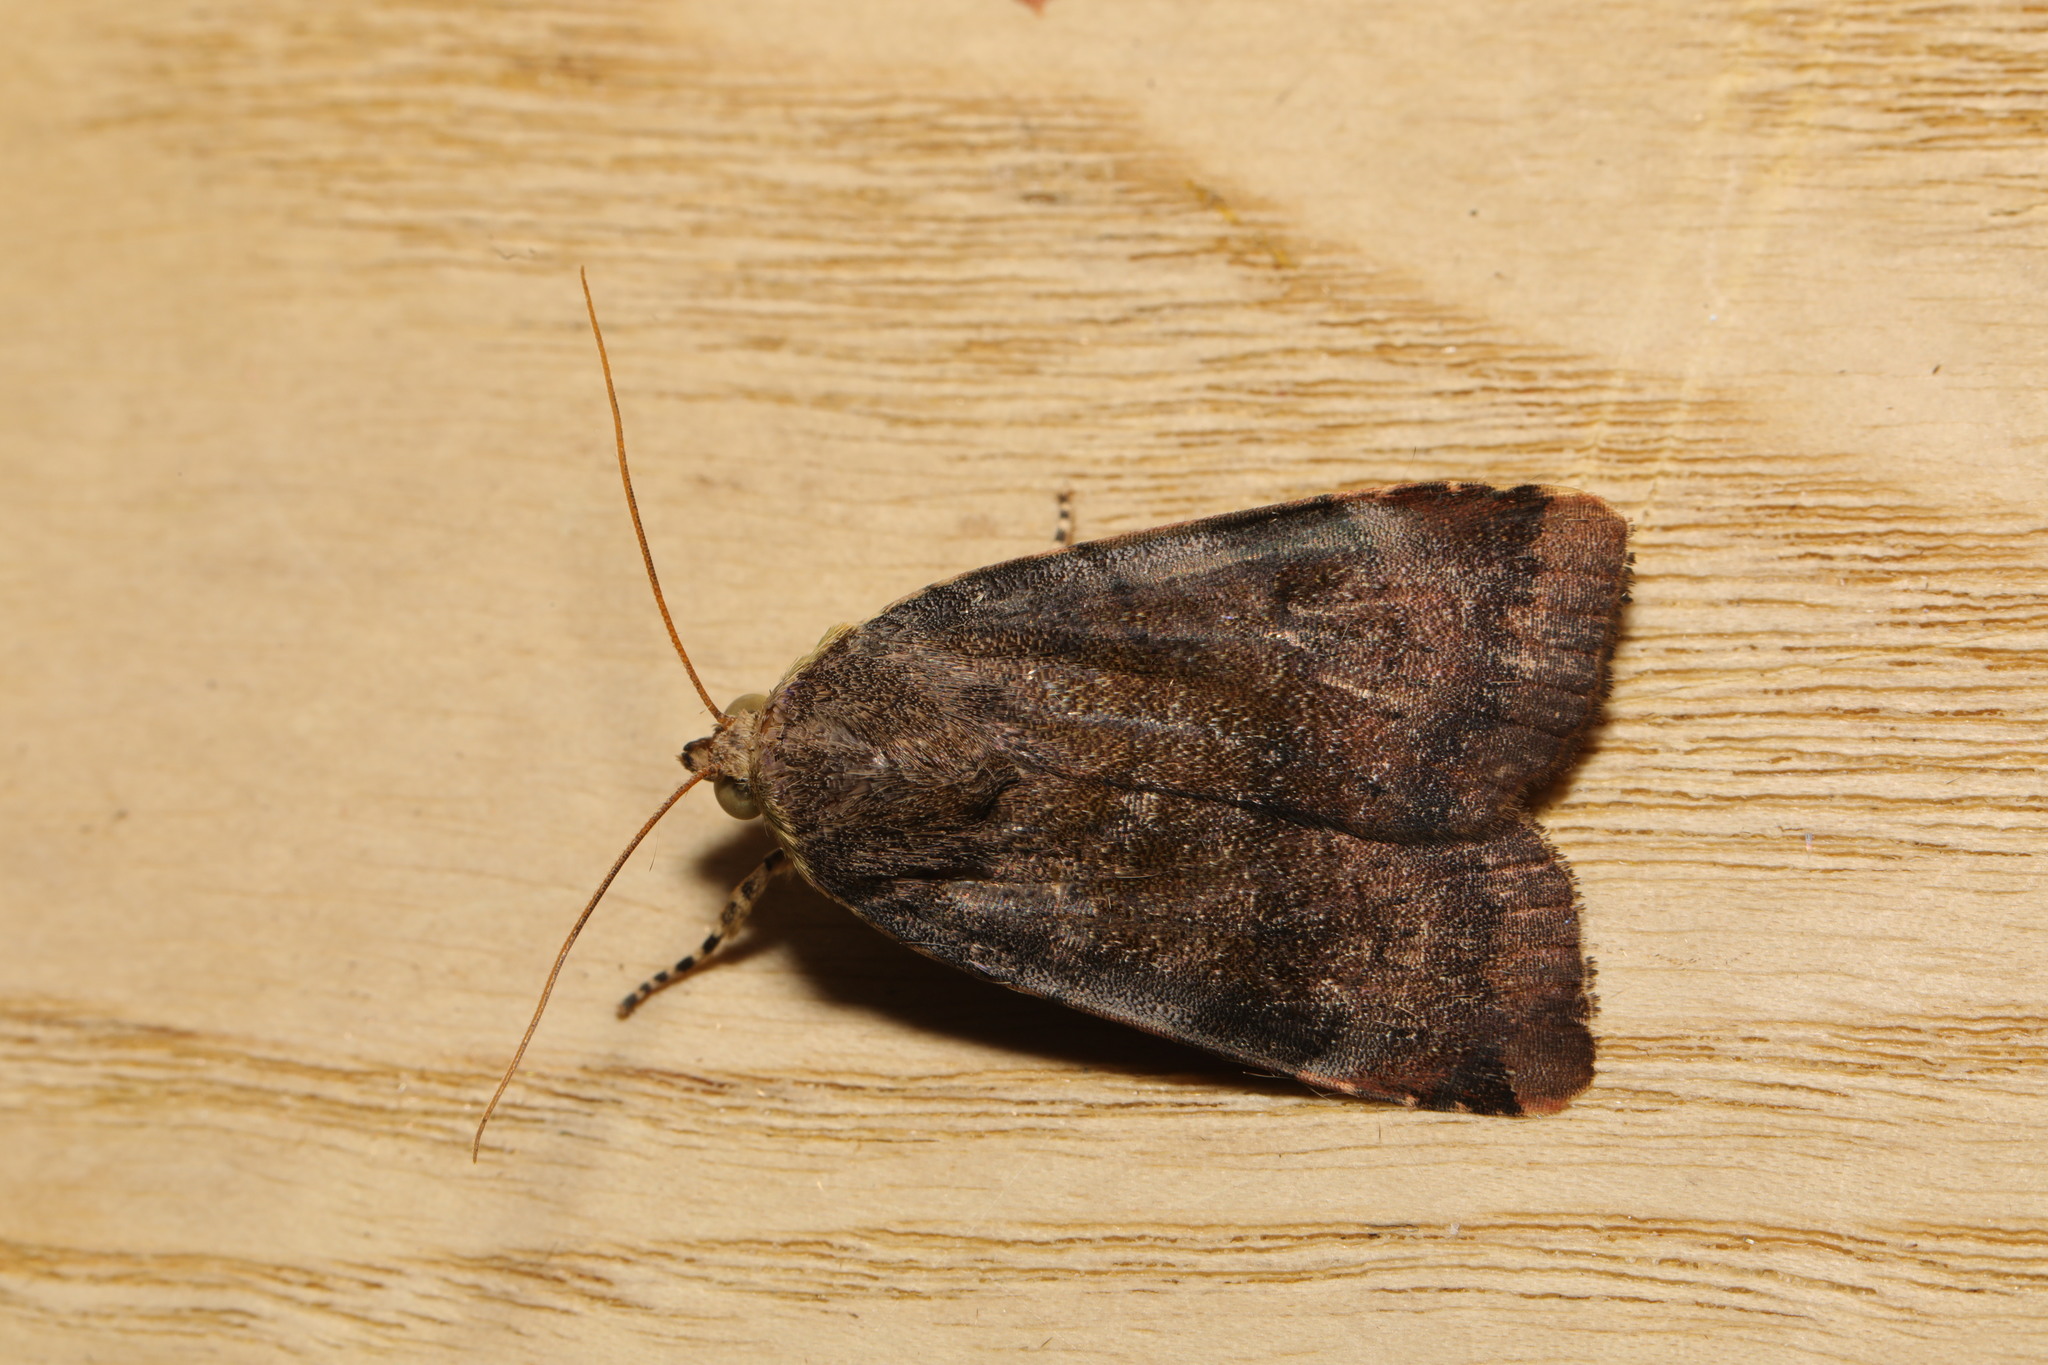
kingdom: Animalia
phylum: Arthropoda
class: Insecta
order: Lepidoptera
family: Noctuidae
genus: Noctua
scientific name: Noctua janthe
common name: Lesser broad-bordered yellow underwing
